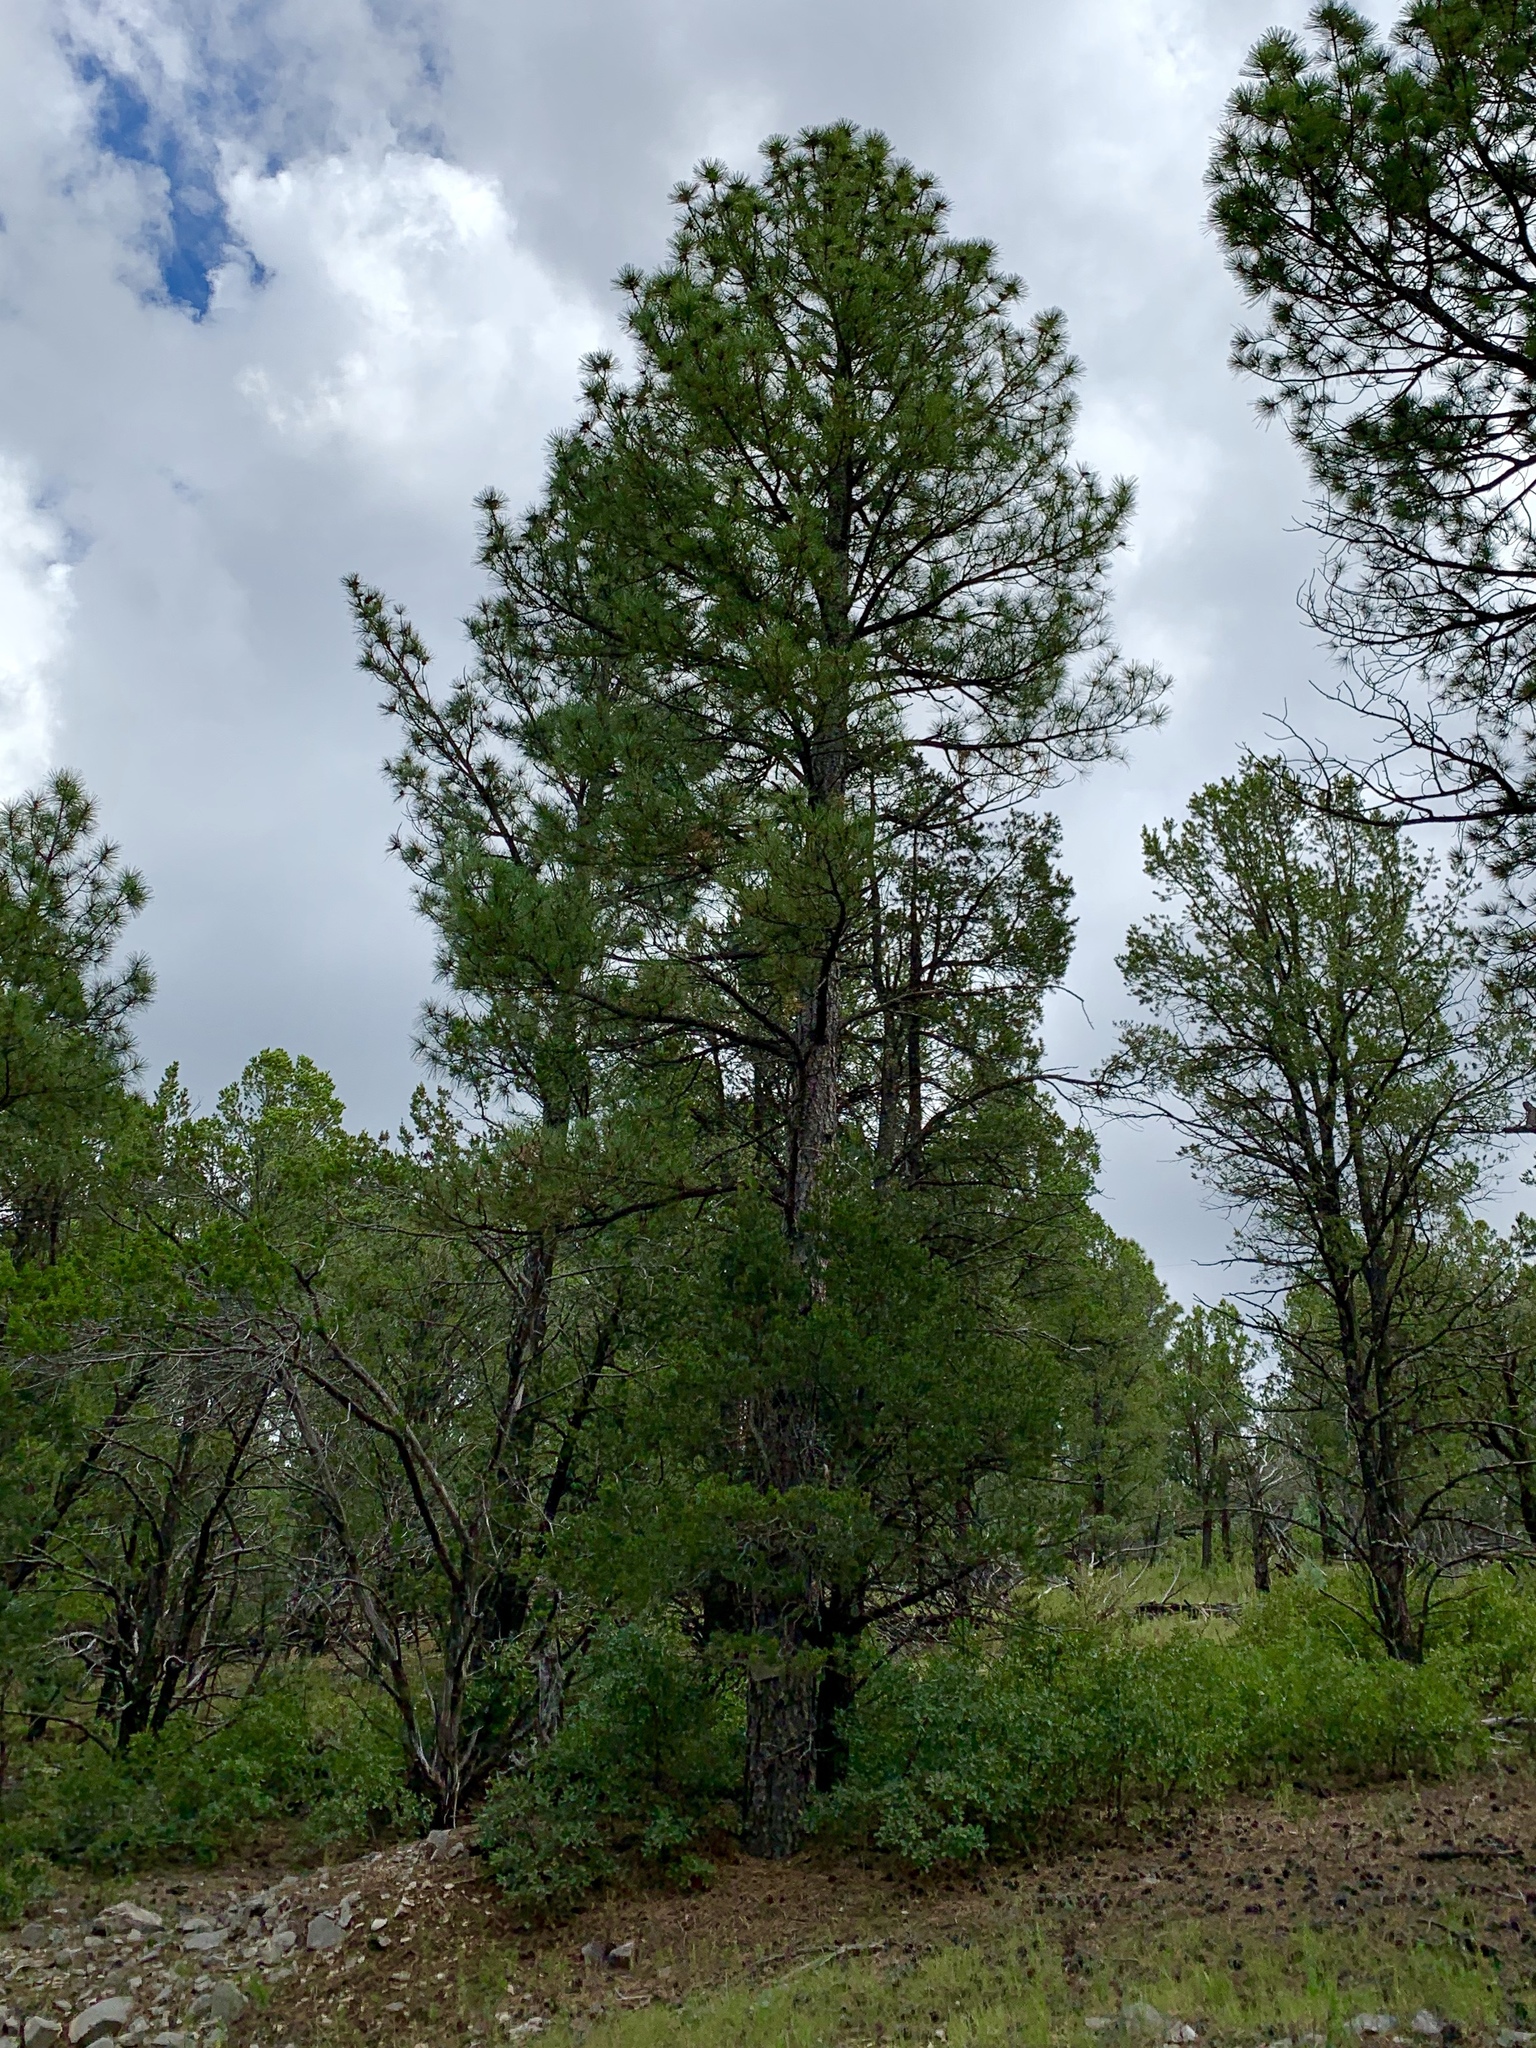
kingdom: Plantae
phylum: Tracheophyta
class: Pinopsida
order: Pinales
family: Pinaceae
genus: Pinus
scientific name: Pinus ponderosa
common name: Western yellow-pine
